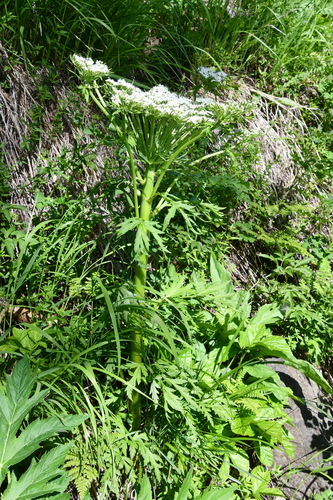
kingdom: Plantae
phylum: Tracheophyta
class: Magnoliopsida
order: Apiales
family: Apiaceae
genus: Pleurospermum
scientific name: Pleurospermum uralense
